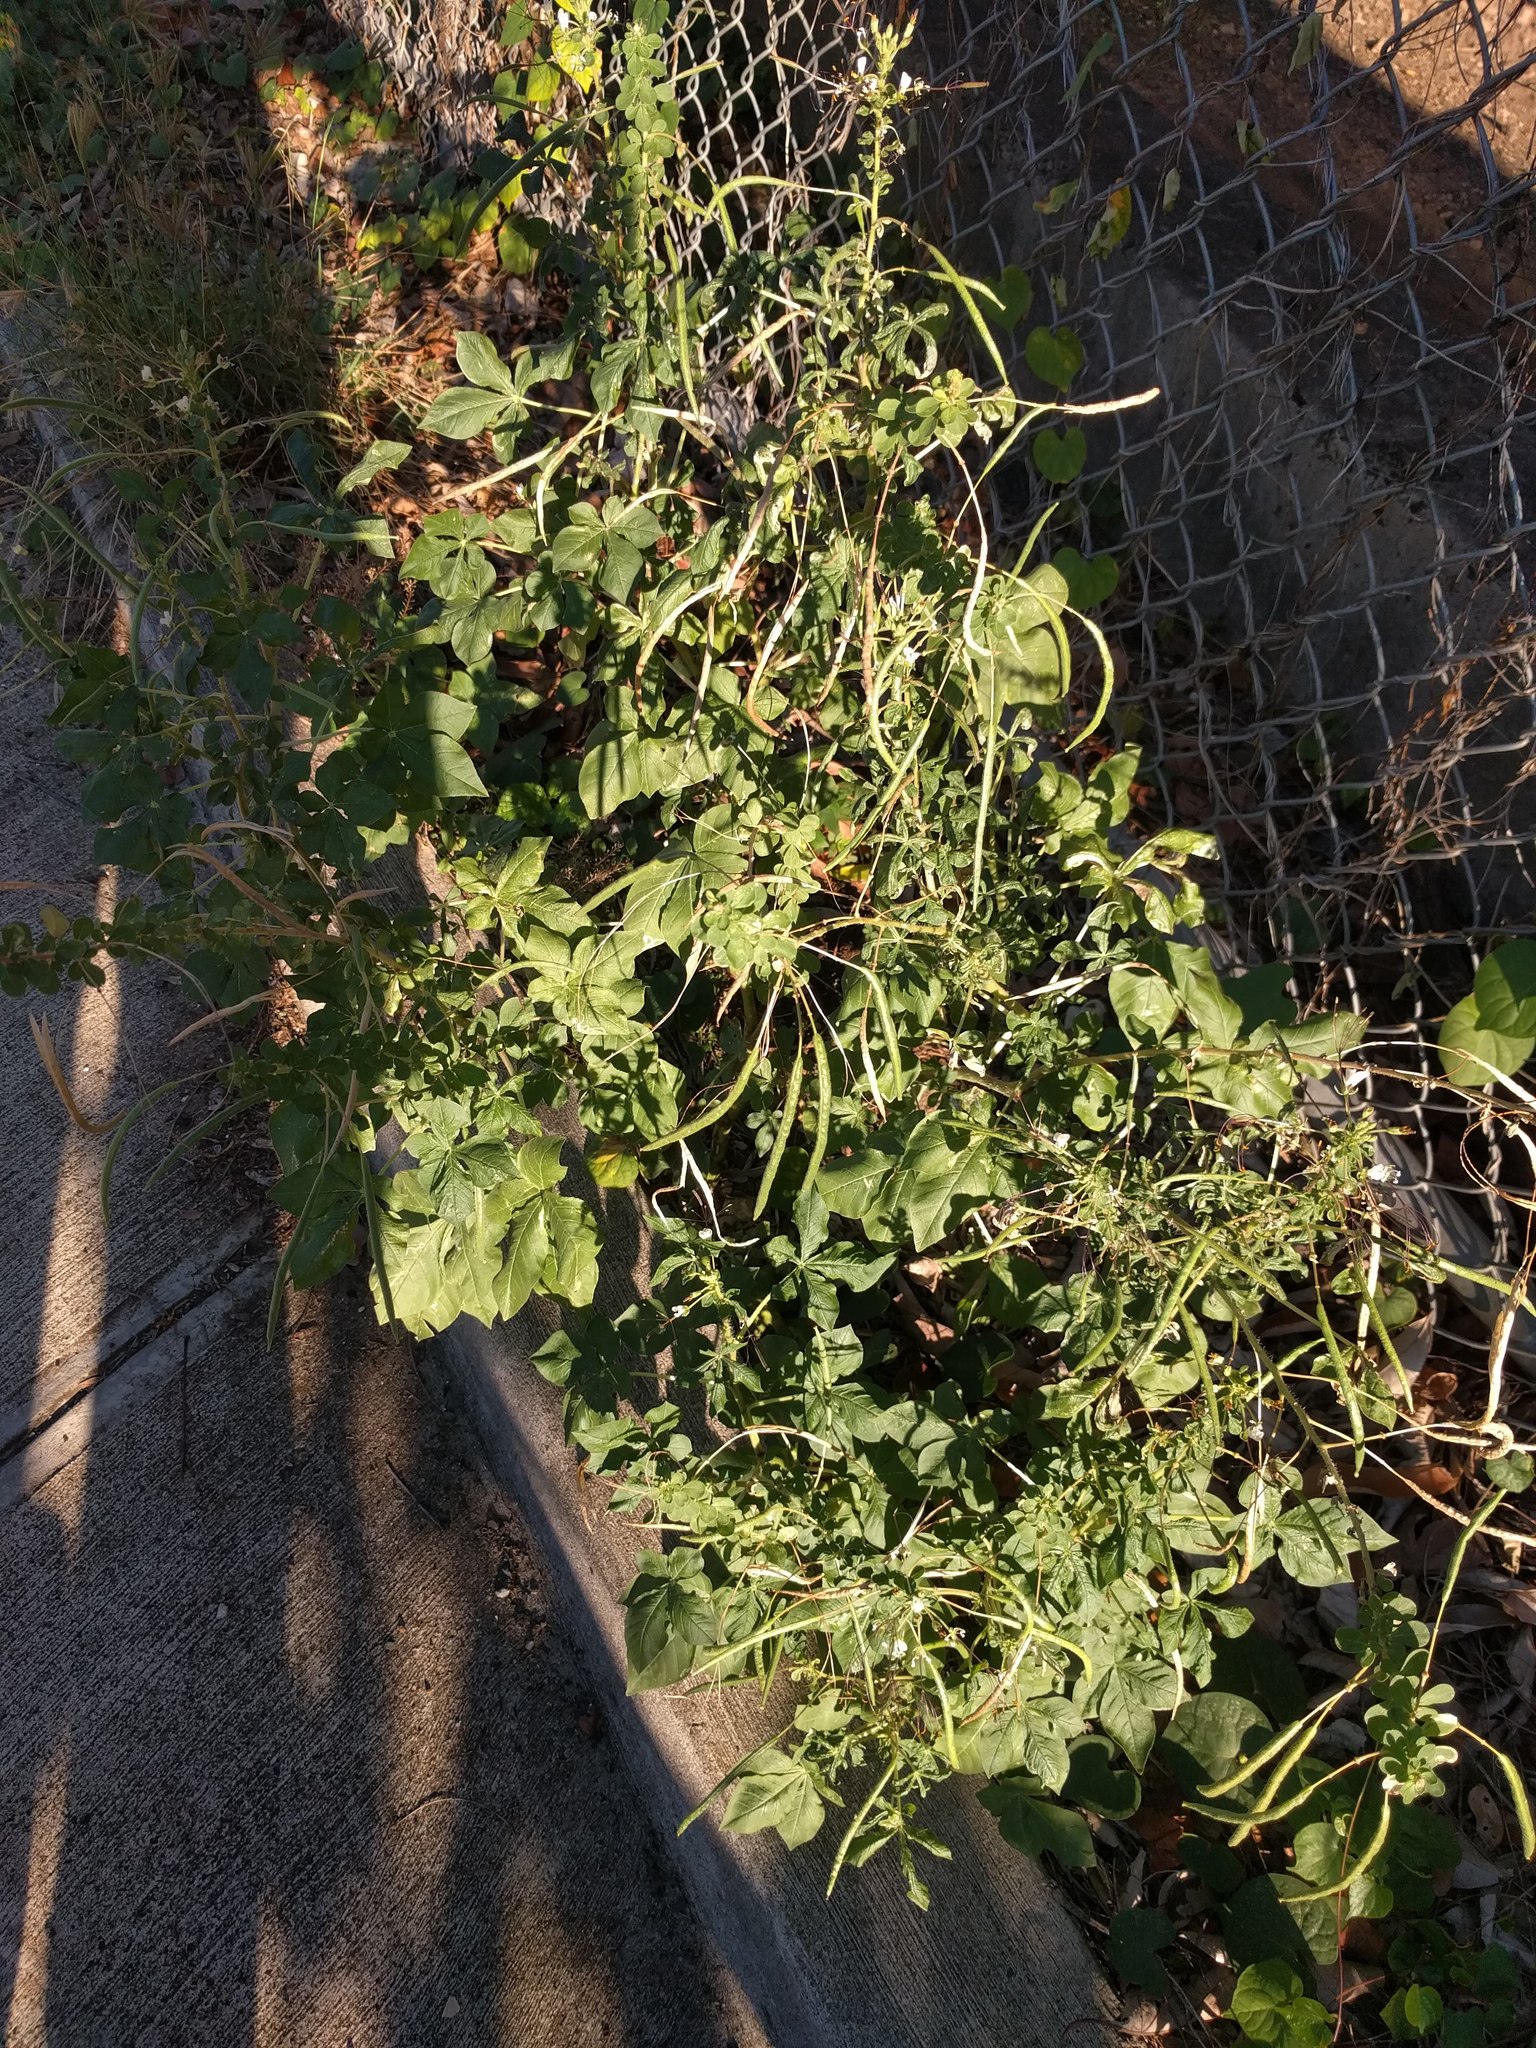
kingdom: Plantae
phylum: Tracheophyta
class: Magnoliopsida
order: Brassicales
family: Cleomaceae
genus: Gynandropsis
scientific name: Gynandropsis gynandra
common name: Spiderwisp
